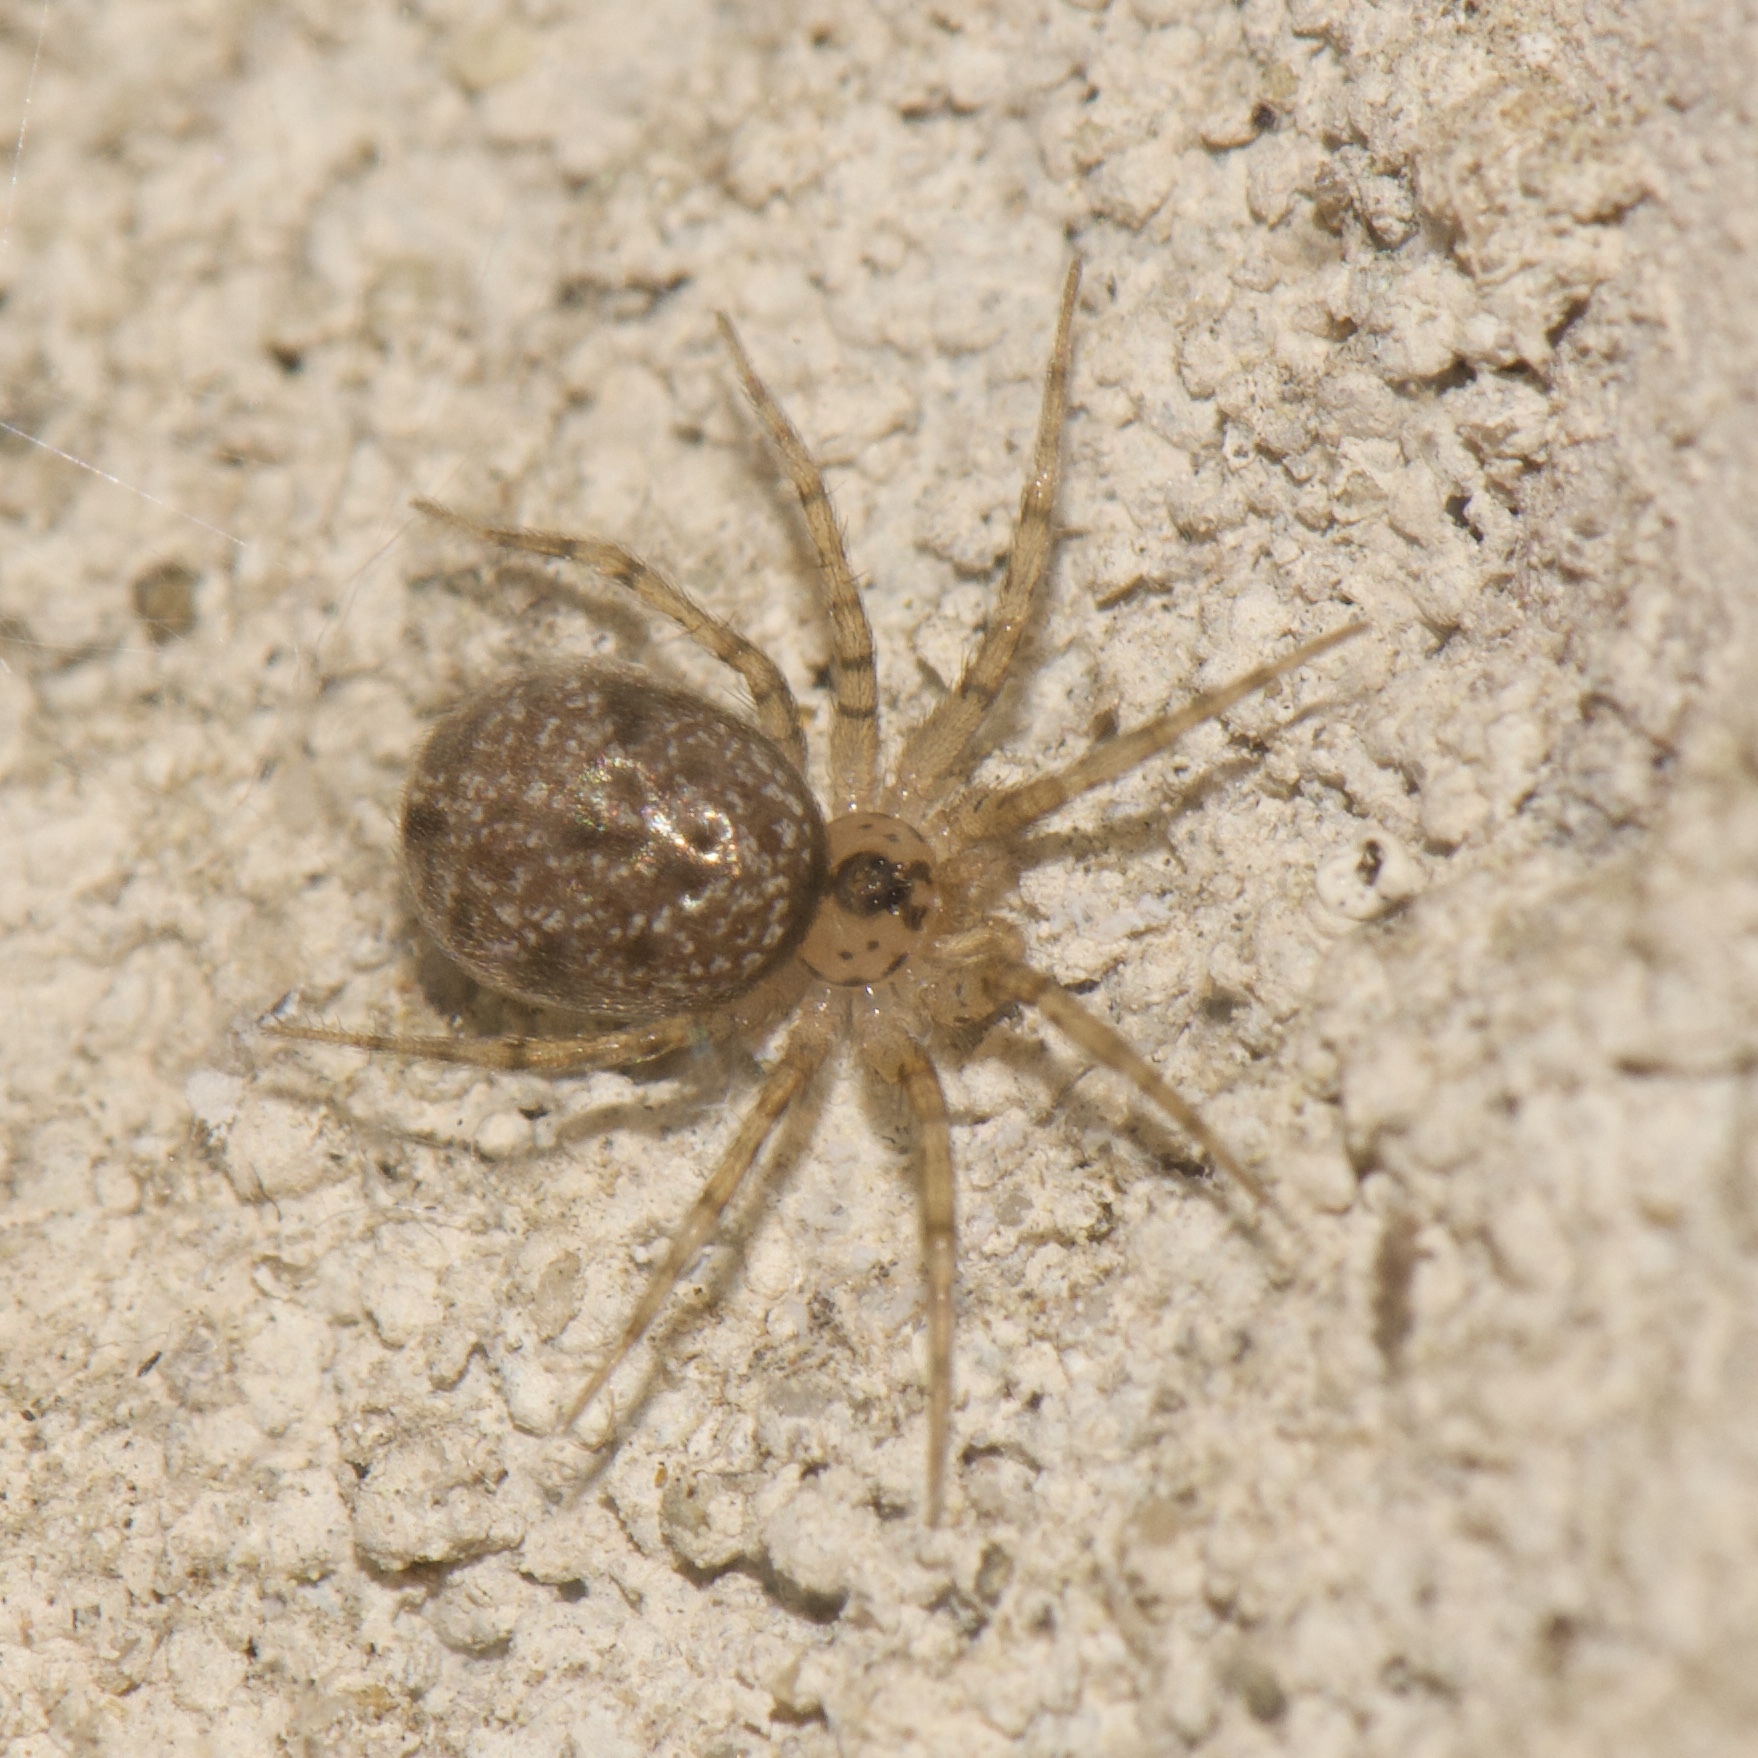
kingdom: Animalia
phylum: Arthropoda
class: Arachnida
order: Araneae
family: Oecobiidae
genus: Oecobius
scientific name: Oecobius navus
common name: Flatmesh weaver
